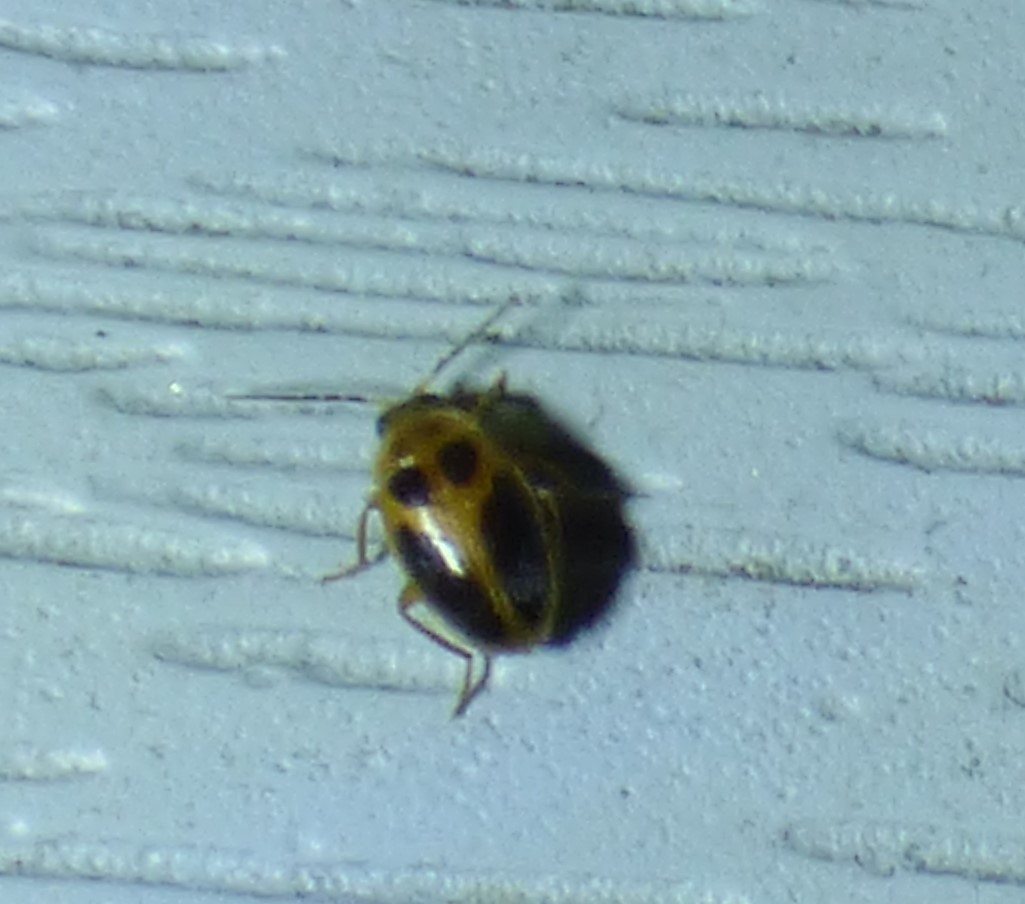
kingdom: Animalia
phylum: Arthropoda
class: Insecta
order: Coleoptera
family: Scirtidae
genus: Sacodes
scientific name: Sacodes pulchella
